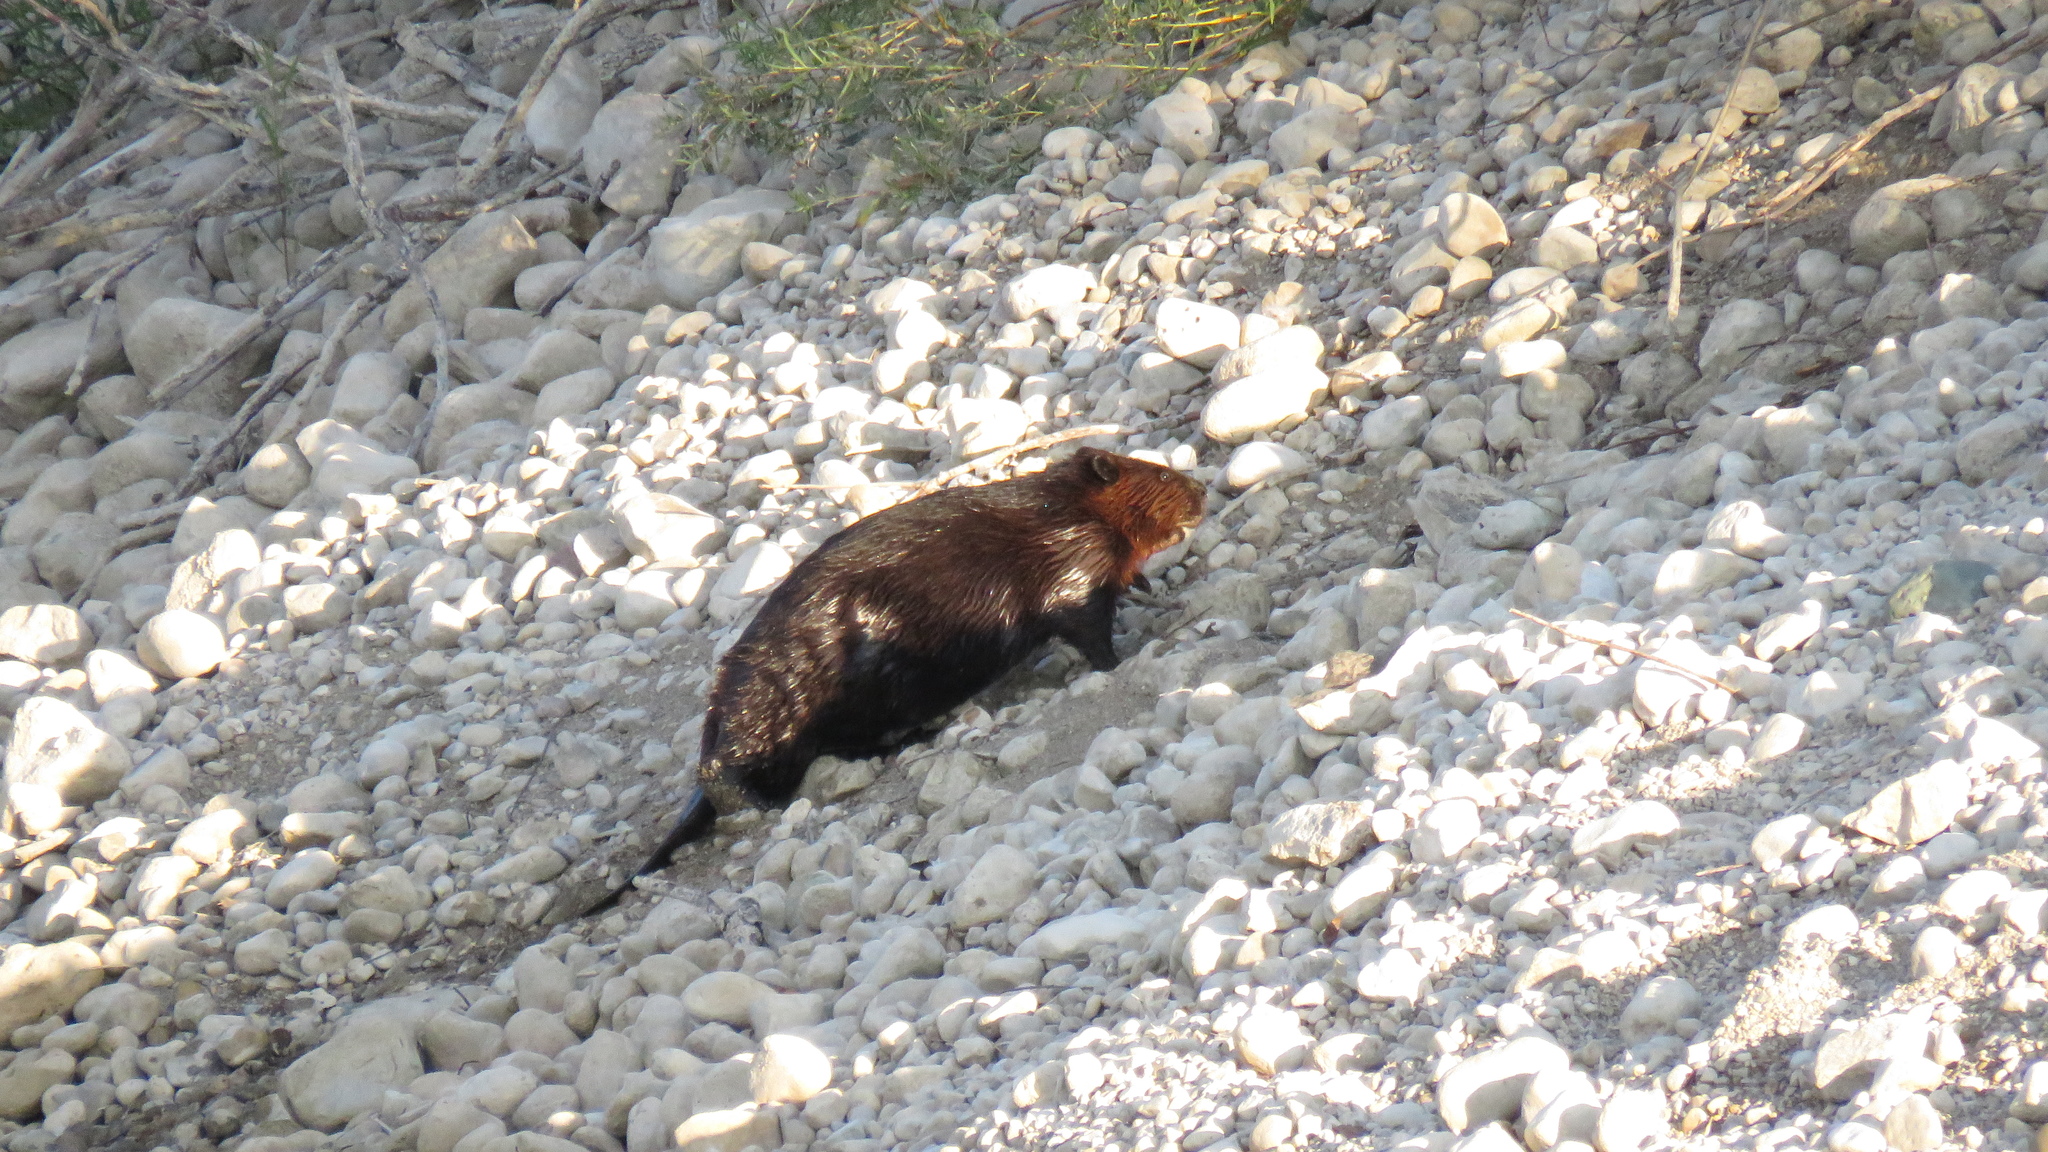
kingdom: Animalia
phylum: Chordata
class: Mammalia
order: Rodentia
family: Castoridae
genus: Castor
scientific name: Castor canadensis
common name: American beaver
